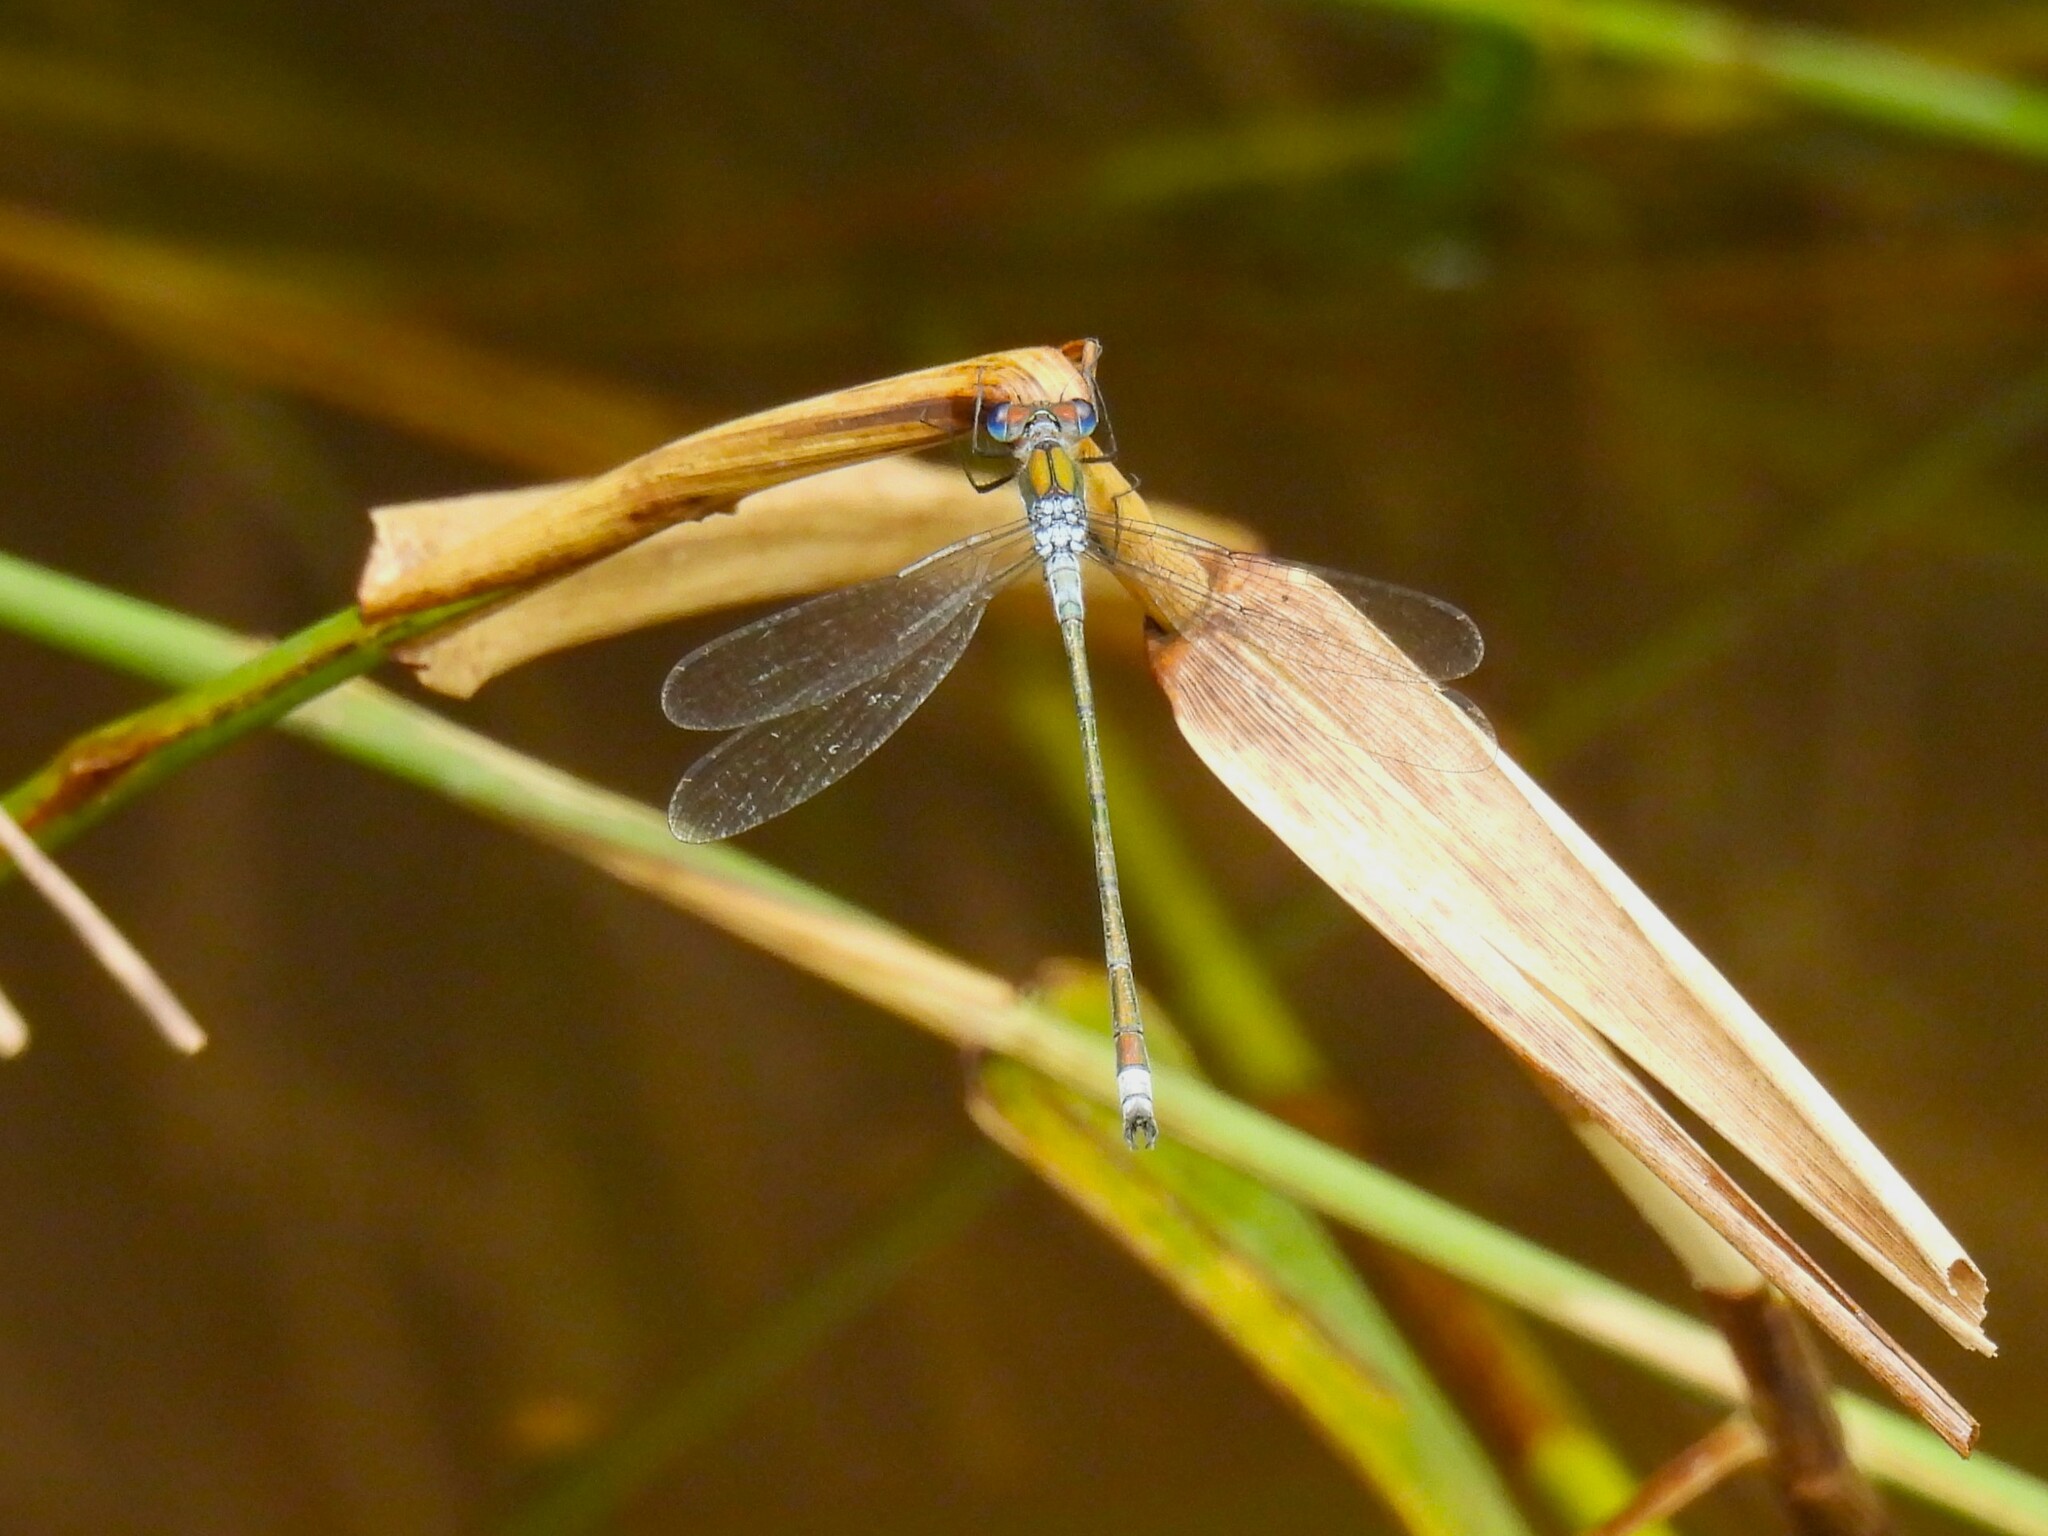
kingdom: Animalia
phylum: Arthropoda
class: Insecta
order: Odonata
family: Lestidae
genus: Lestes
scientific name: Lestes sponsa
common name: Common spreadwing
